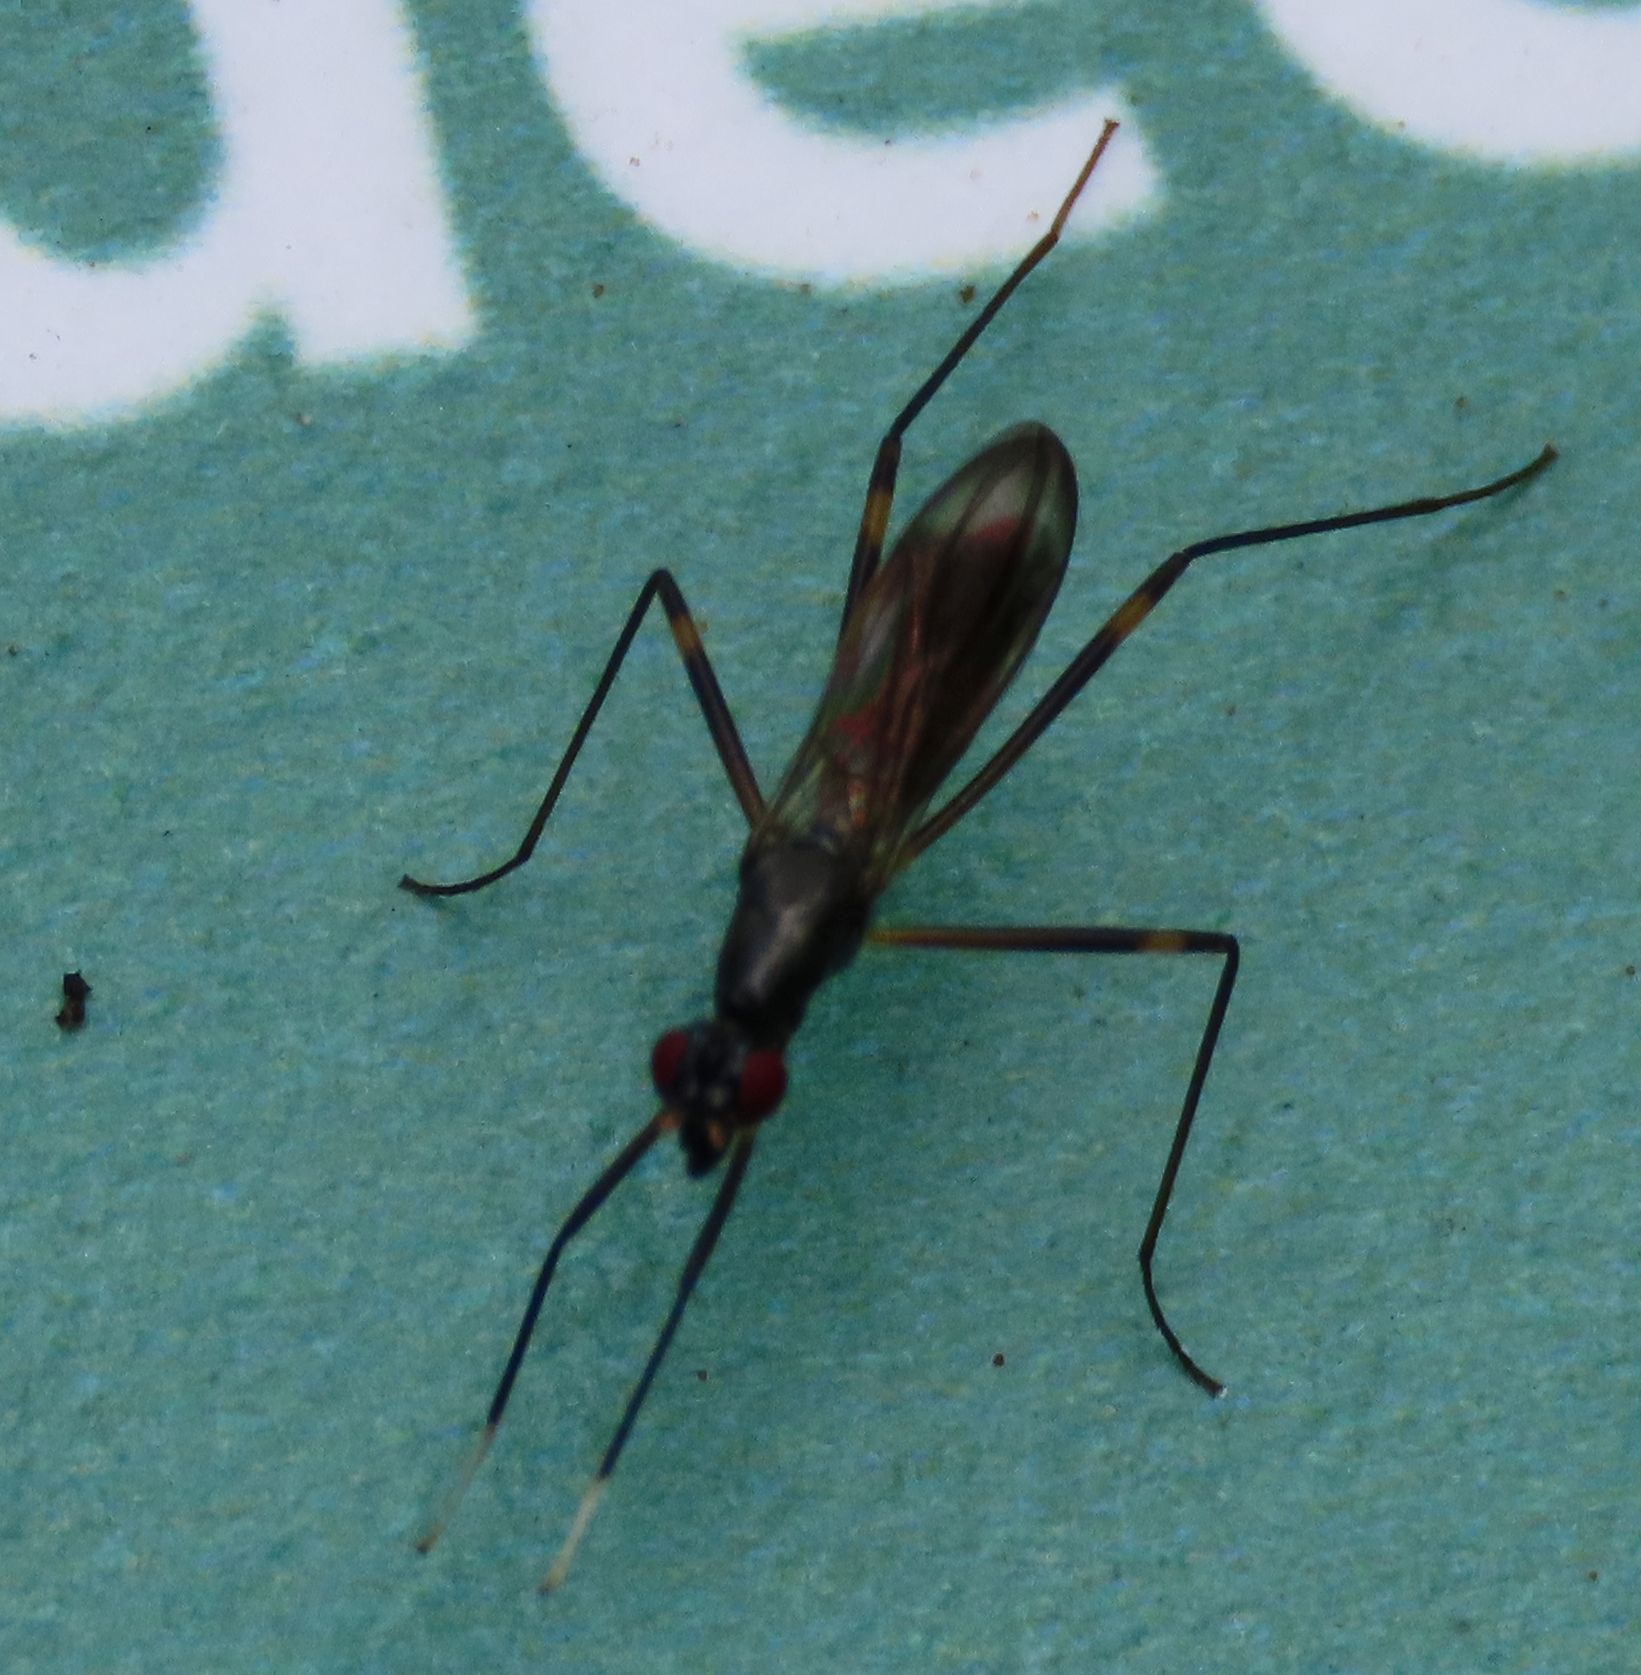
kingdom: Animalia
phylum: Arthropoda
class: Insecta
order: Diptera
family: Micropezidae
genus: Rainieria
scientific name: Rainieria antennaepes
